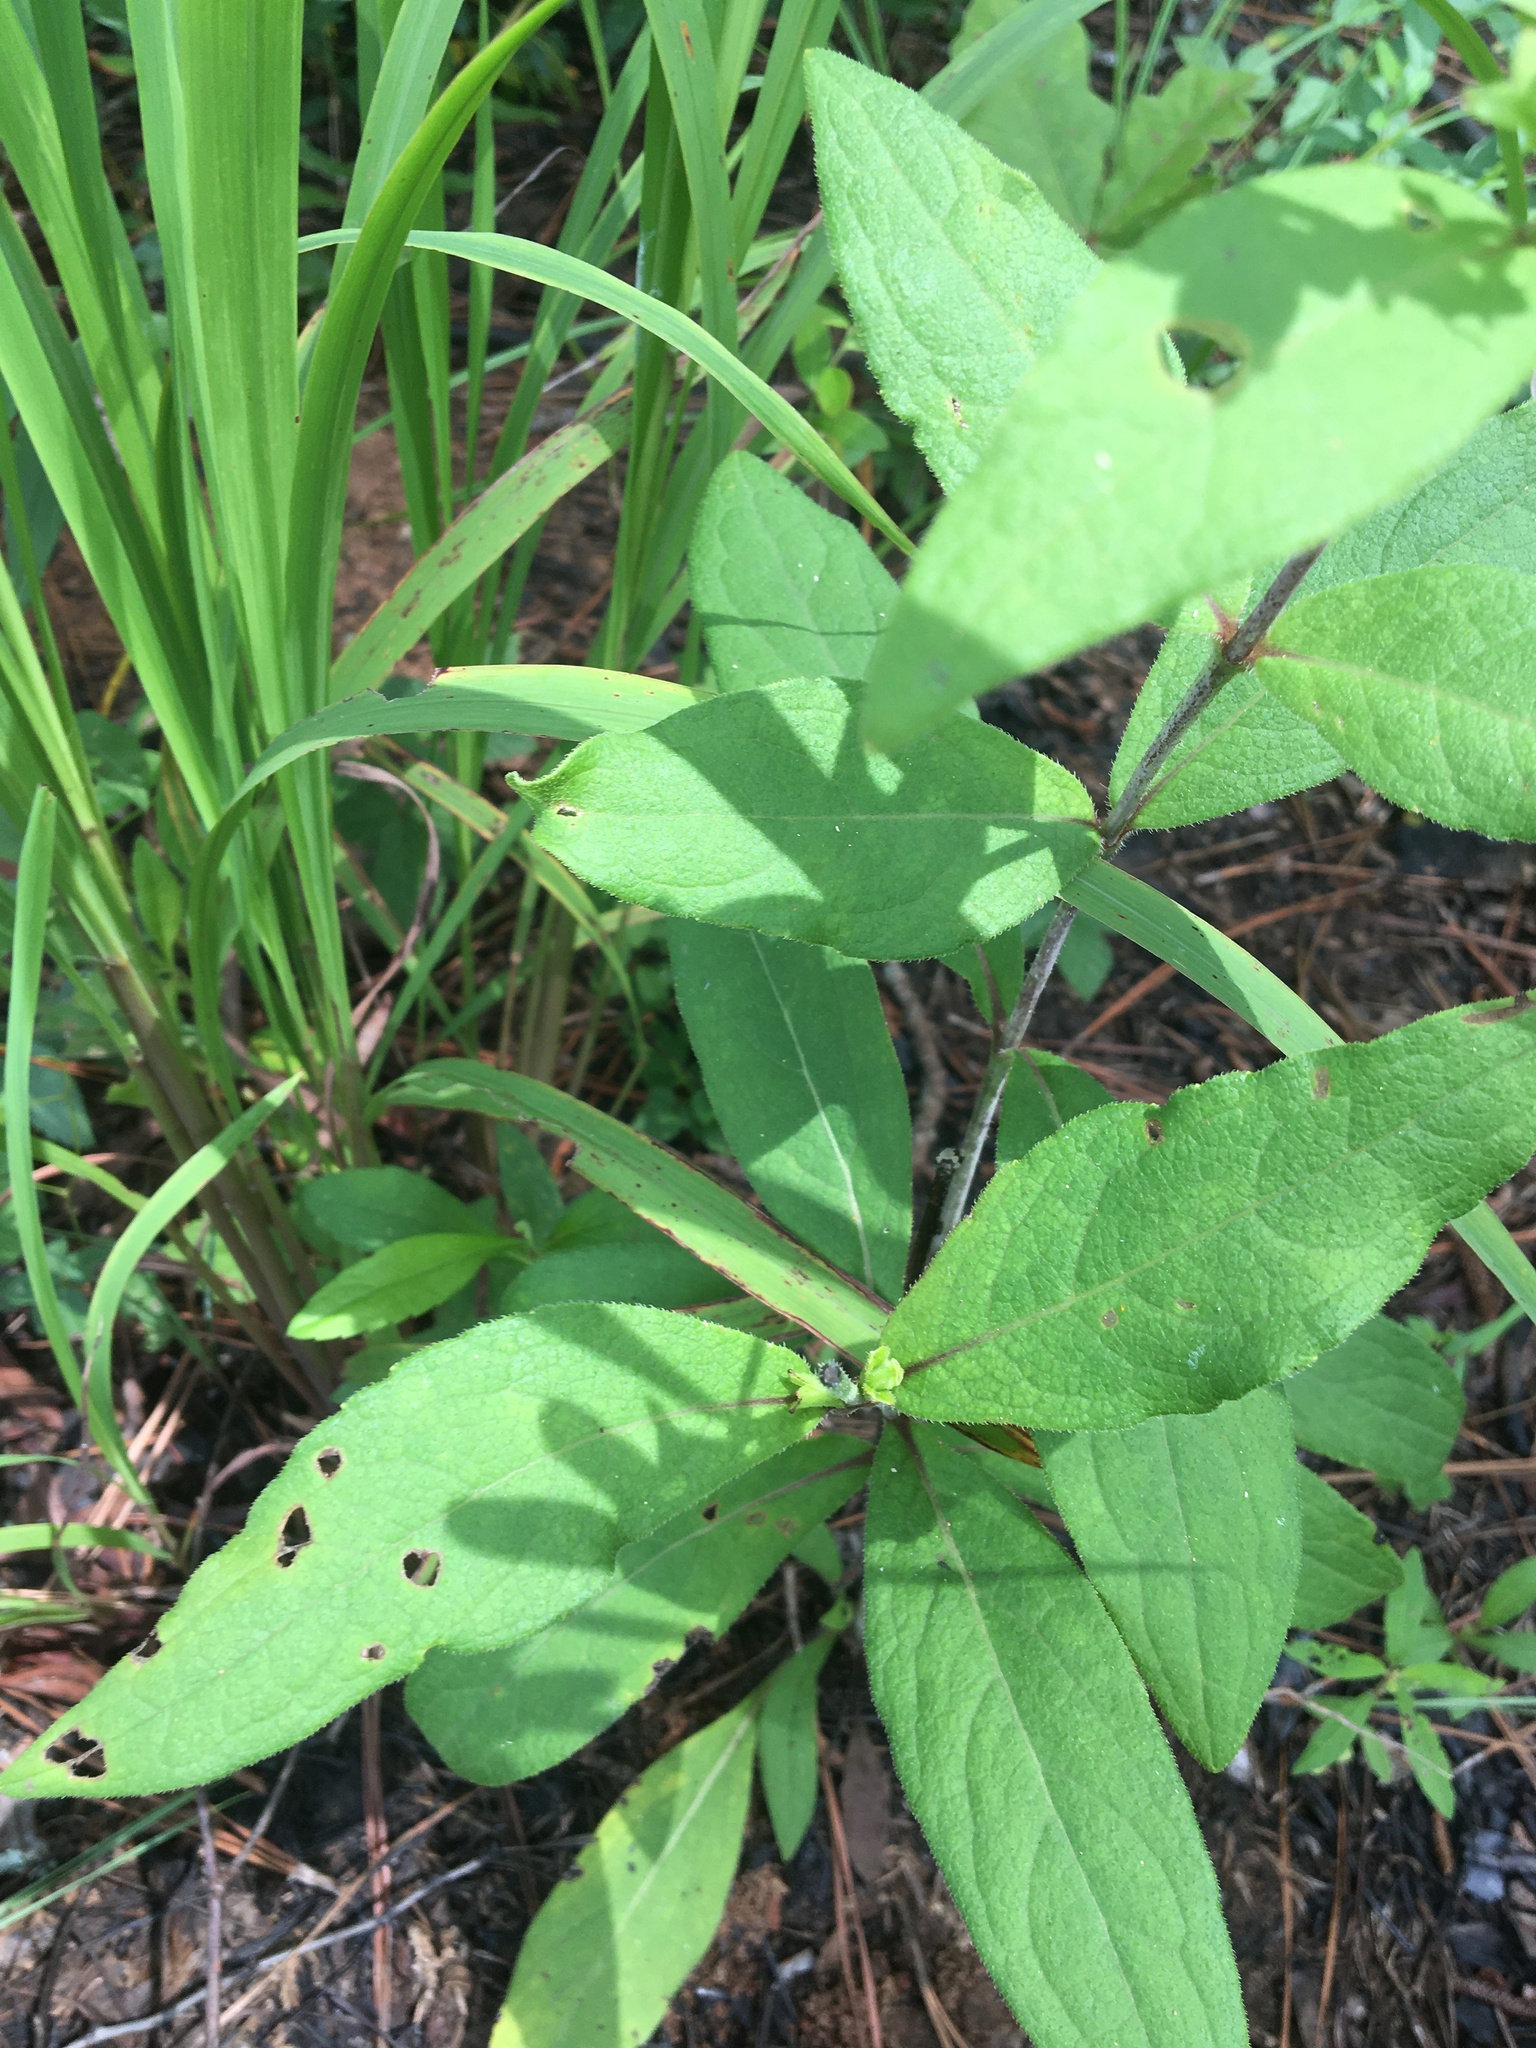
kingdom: Plantae
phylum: Tracheophyta
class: Magnoliopsida
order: Asterales
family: Asteraceae
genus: Silphium
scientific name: Silphium asteriscus
